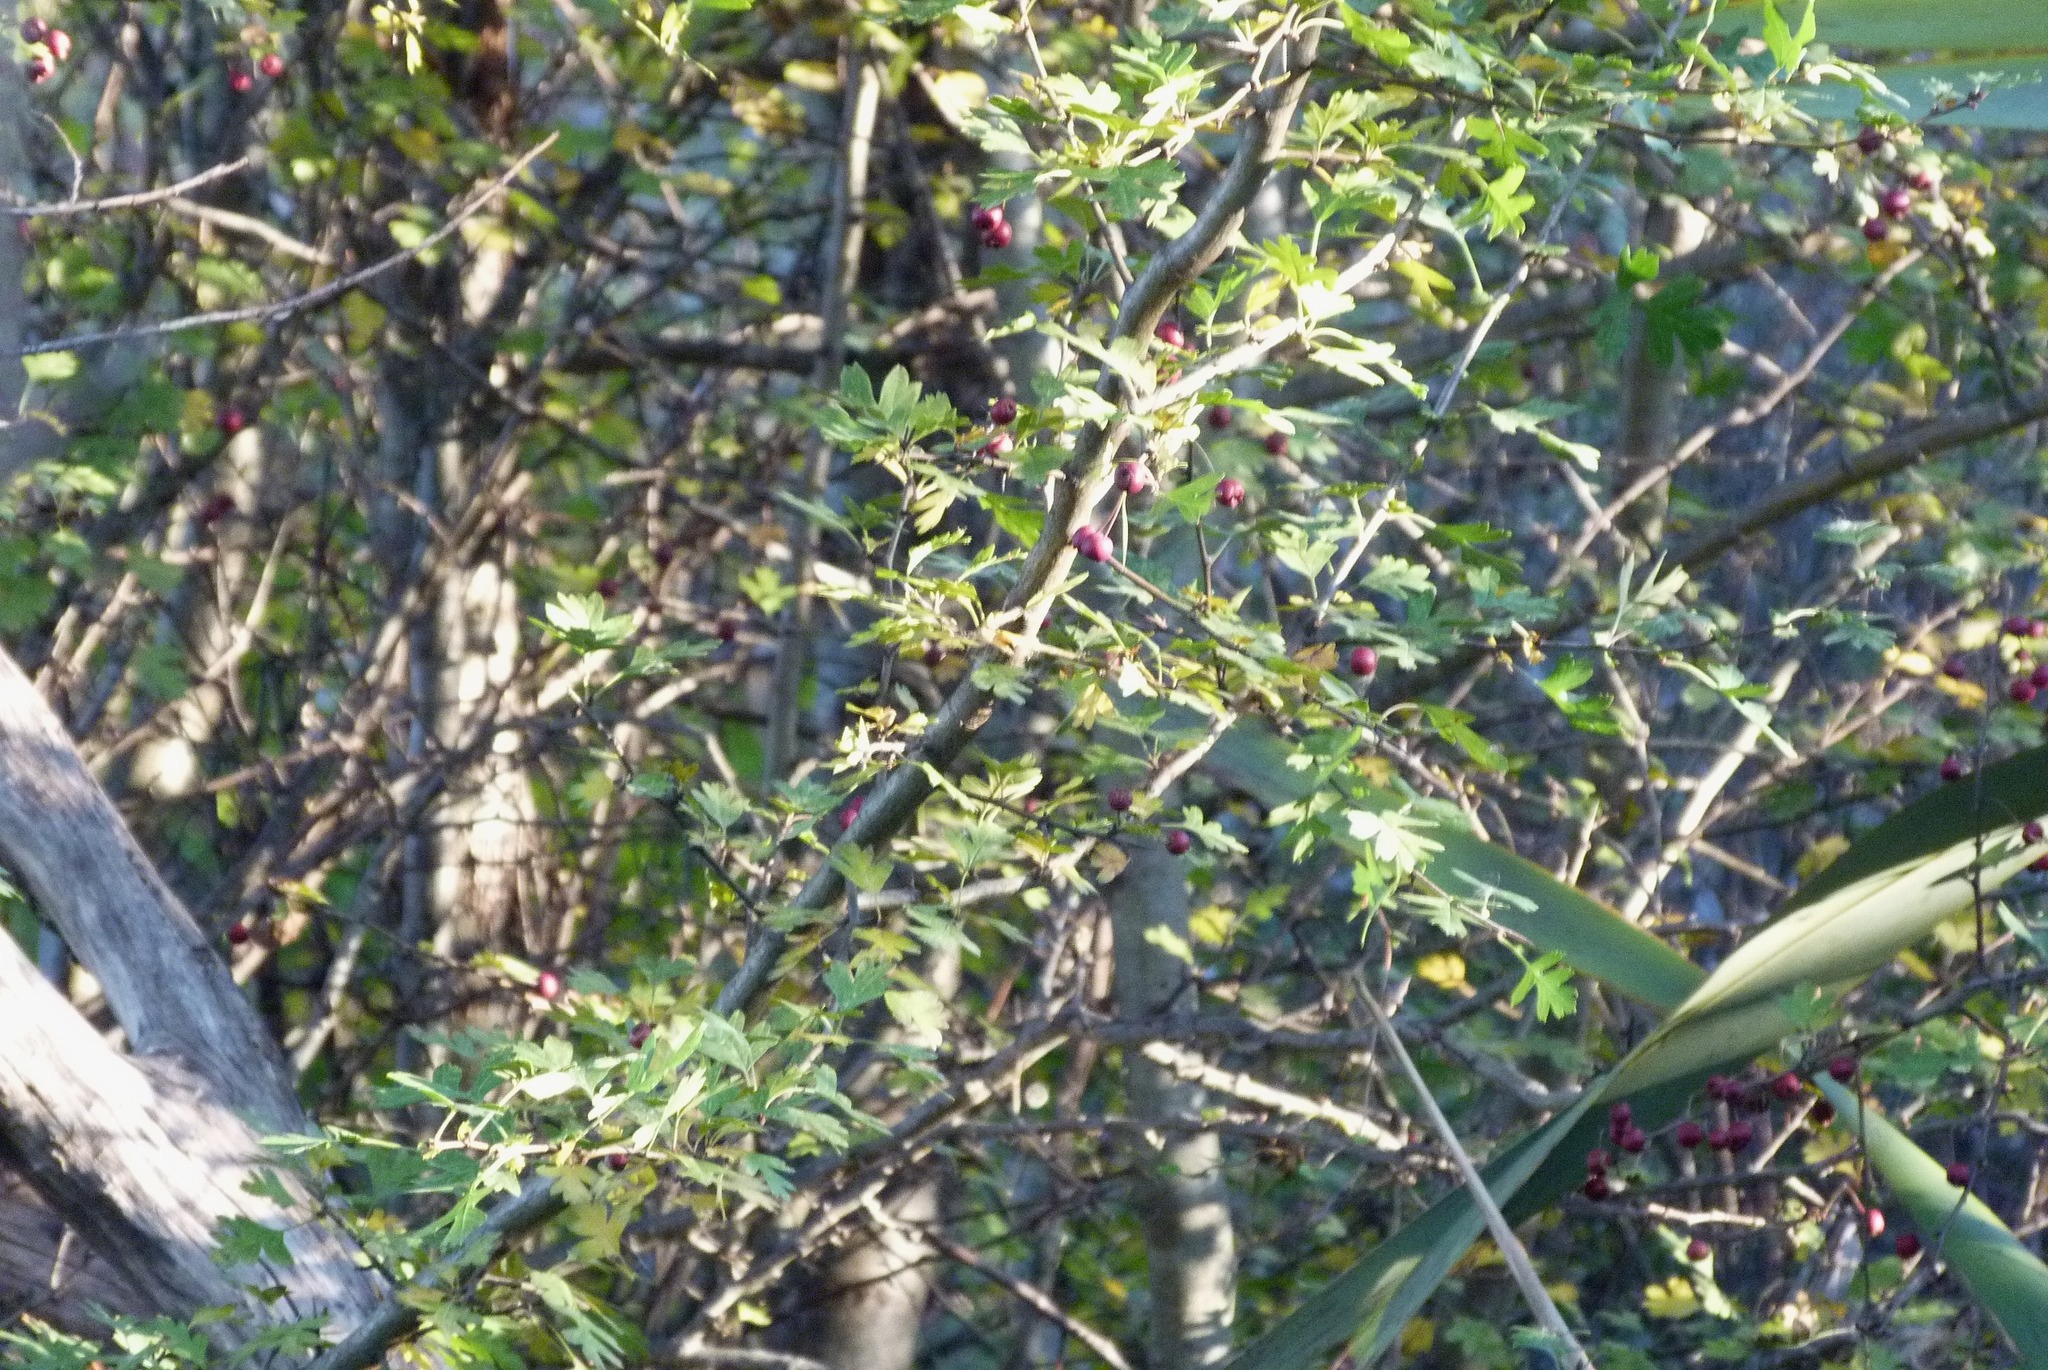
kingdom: Plantae
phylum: Tracheophyta
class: Magnoliopsida
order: Rosales
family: Rosaceae
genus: Crataegus
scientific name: Crataegus monogyna
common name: Hawthorn
